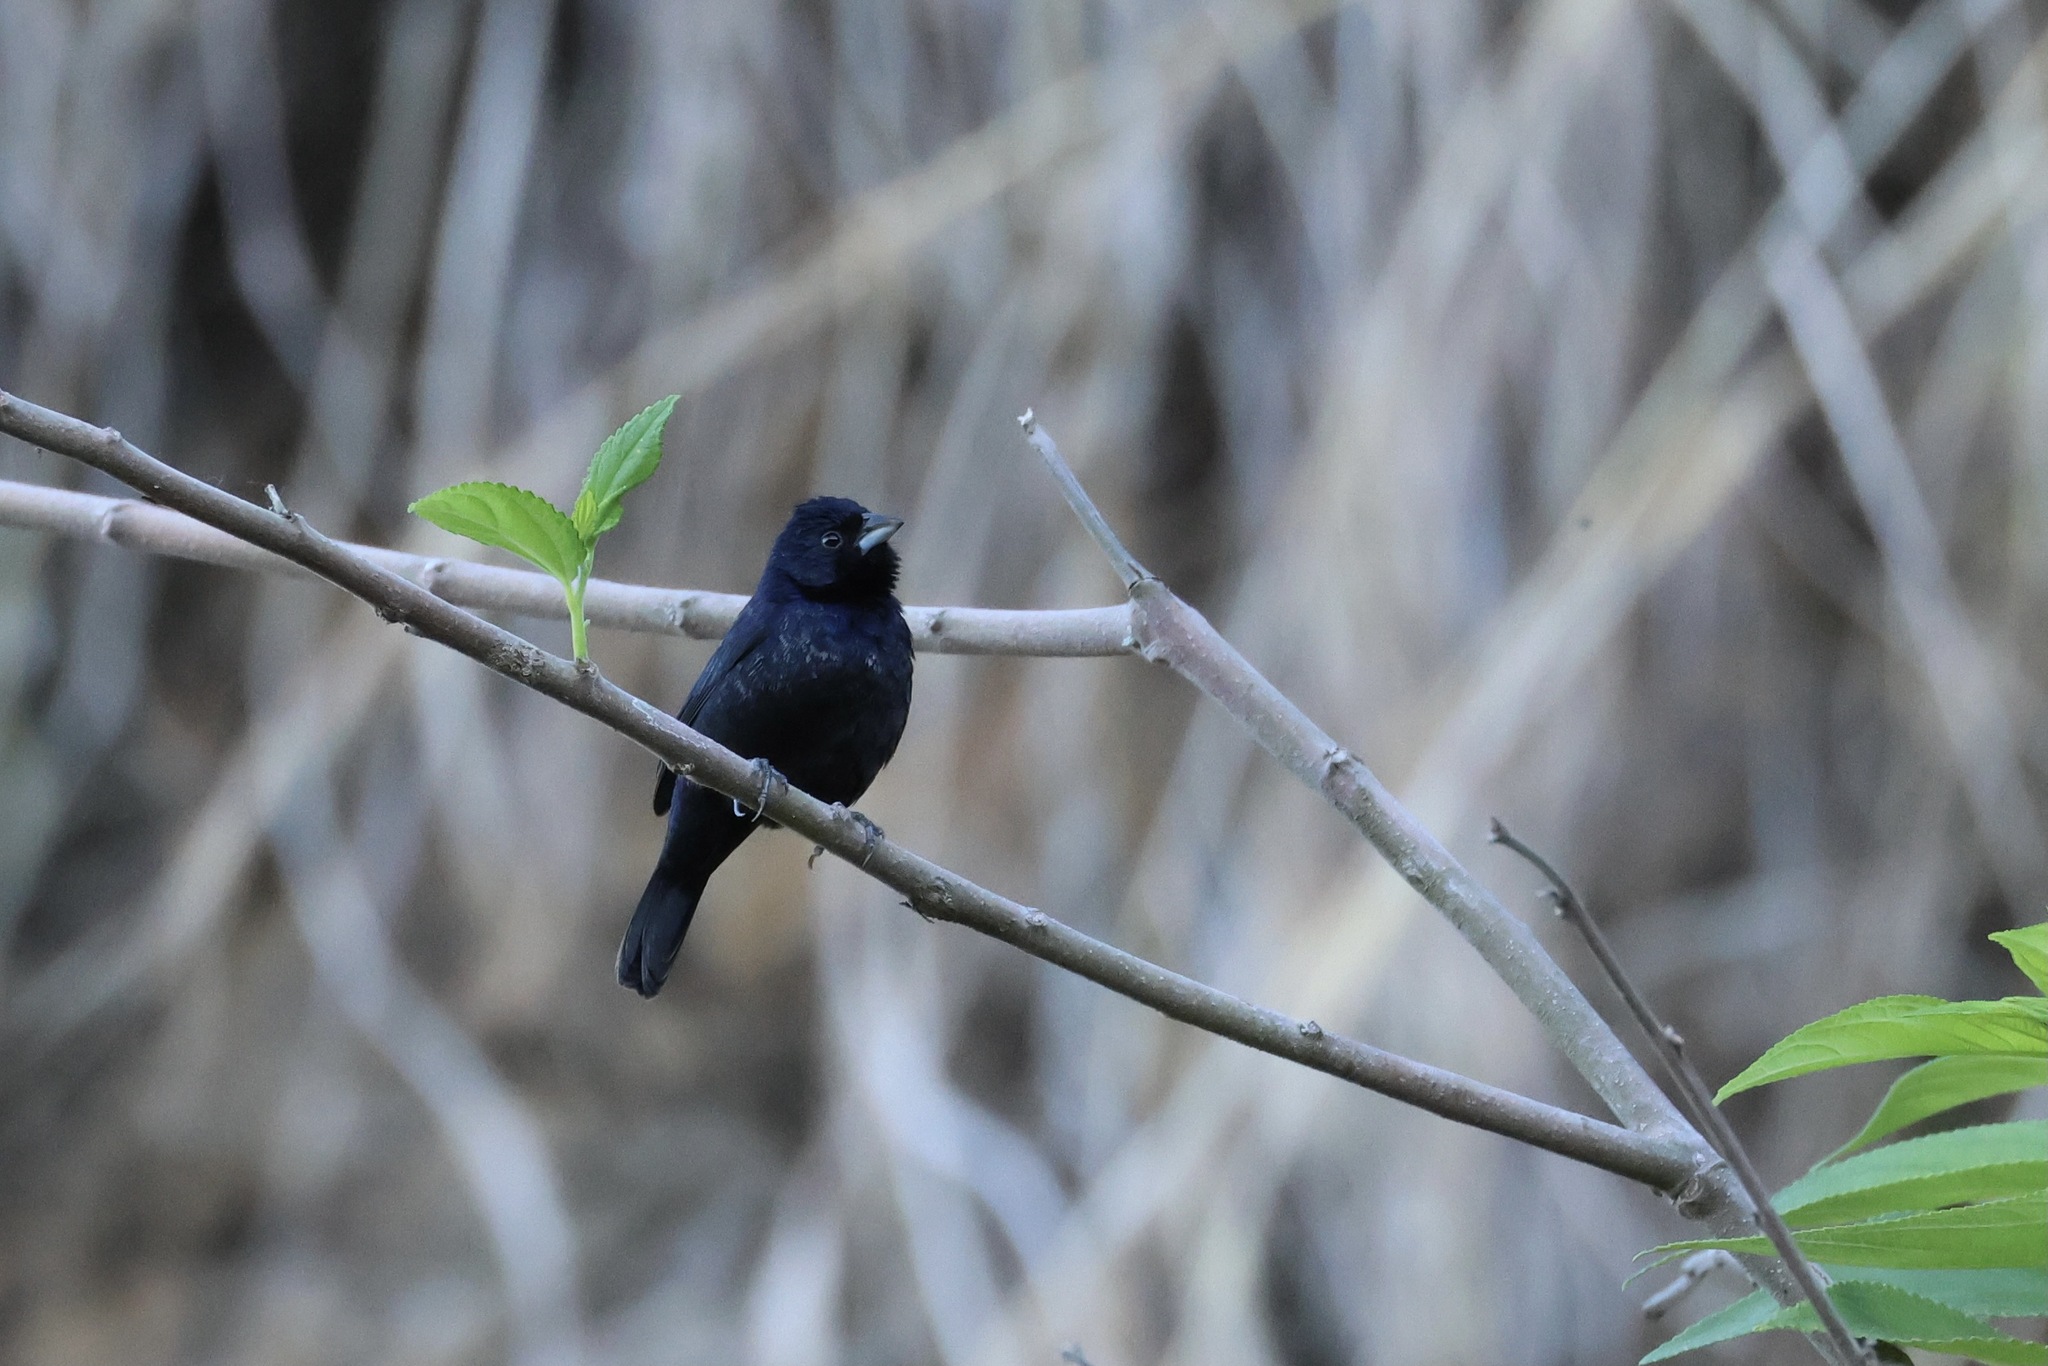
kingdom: Animalia
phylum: Chordata
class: Aves
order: Passeriformes
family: Thraupidae
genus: Volatinia
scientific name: Volatinia jacarina
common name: Blue-black grassquit
